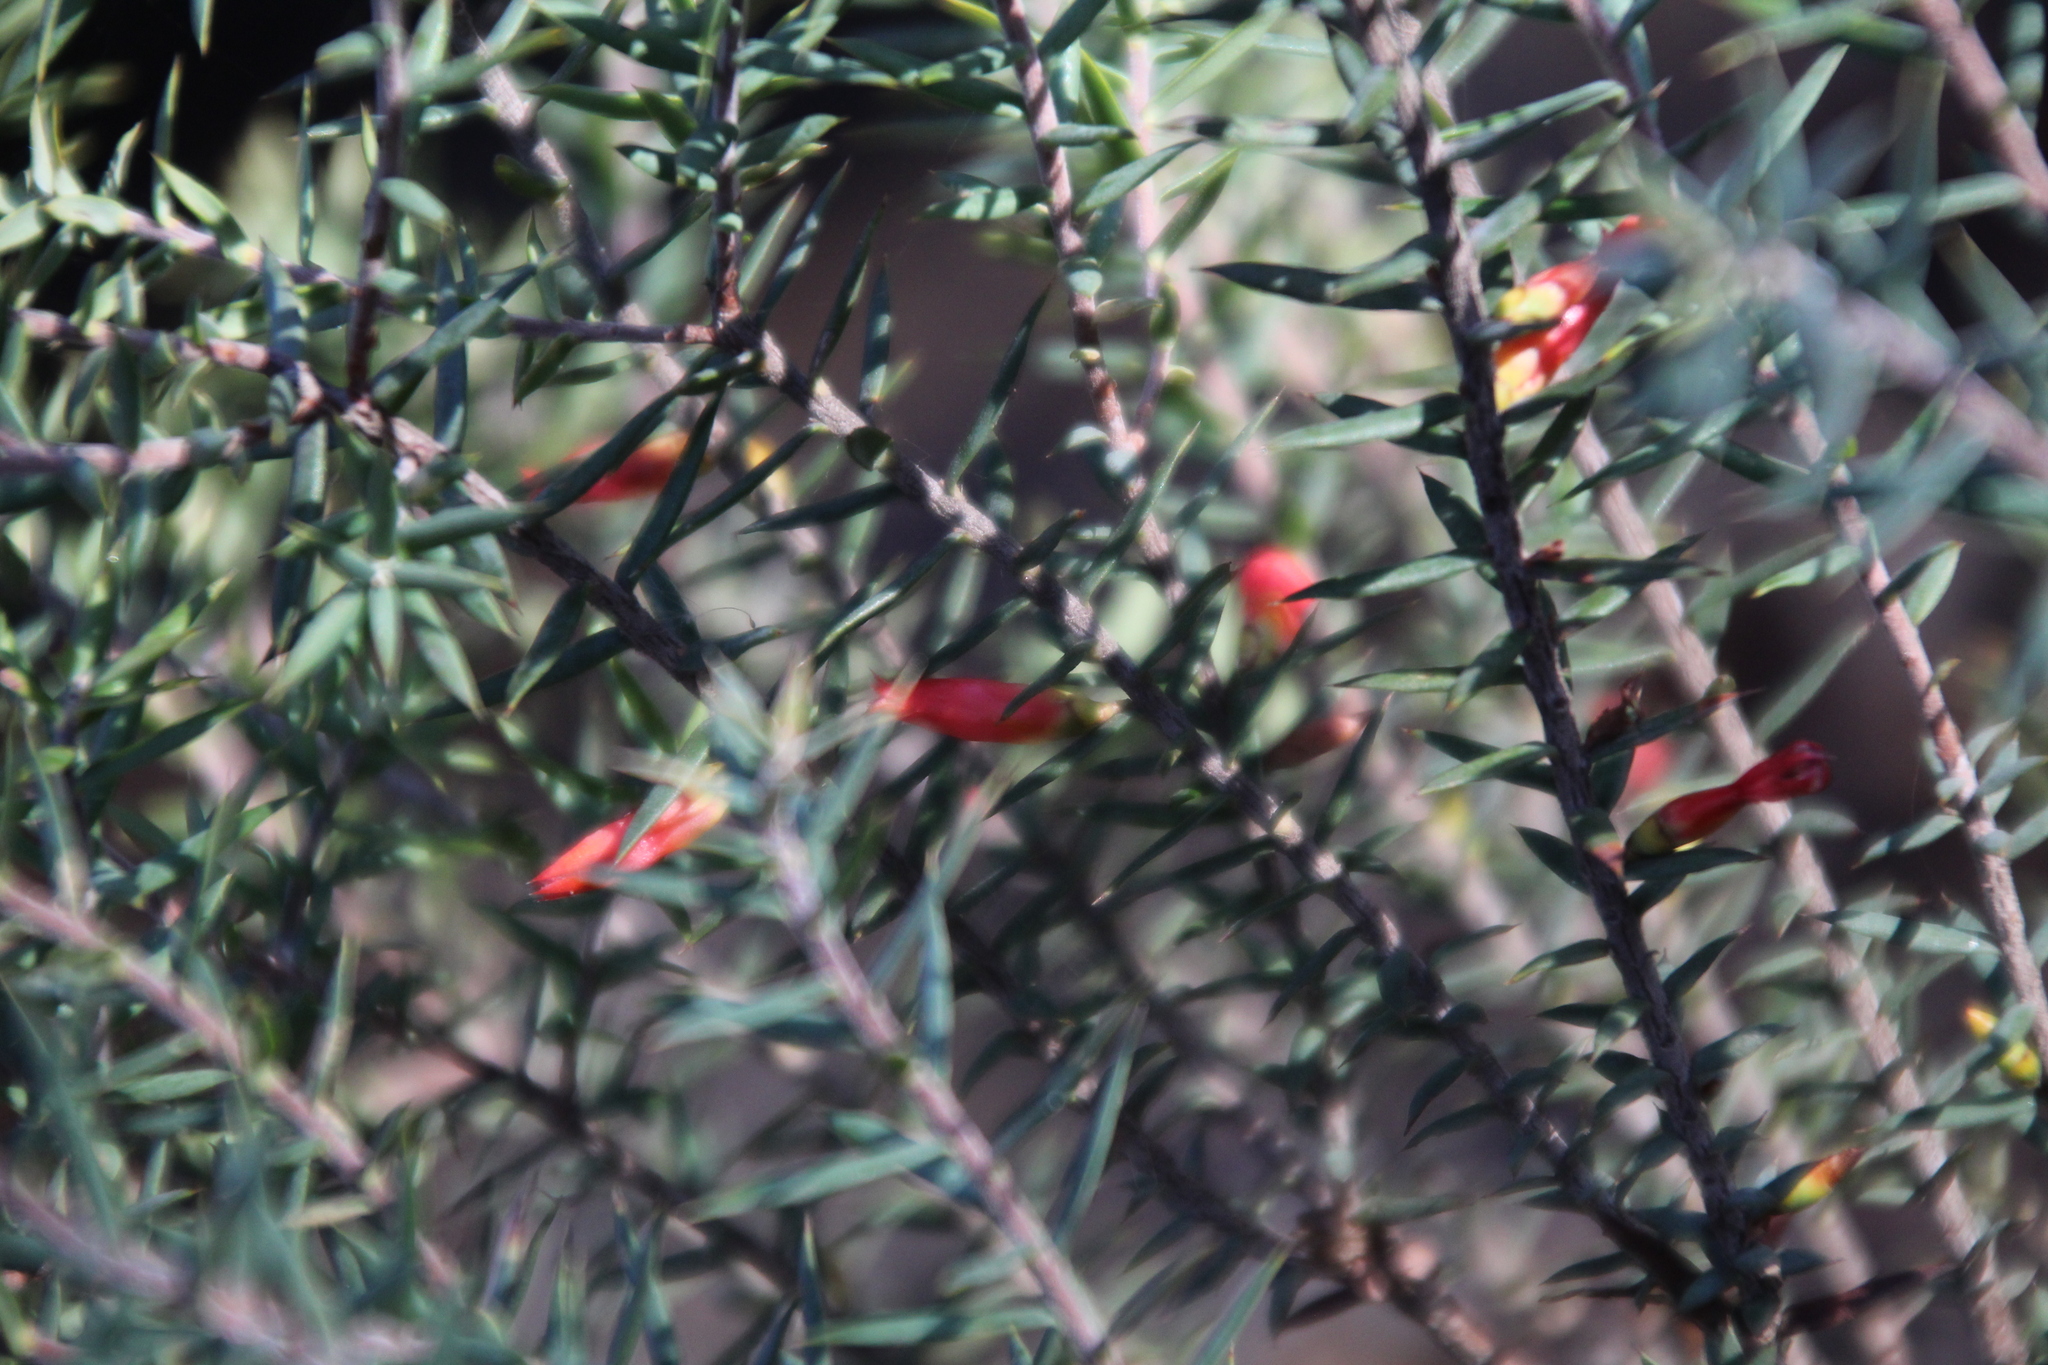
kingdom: Plantae
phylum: Tracheophyta
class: Magnoliopsida
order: Ericales
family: Ericaceae
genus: Styphelia
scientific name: Styphelia epacridis
